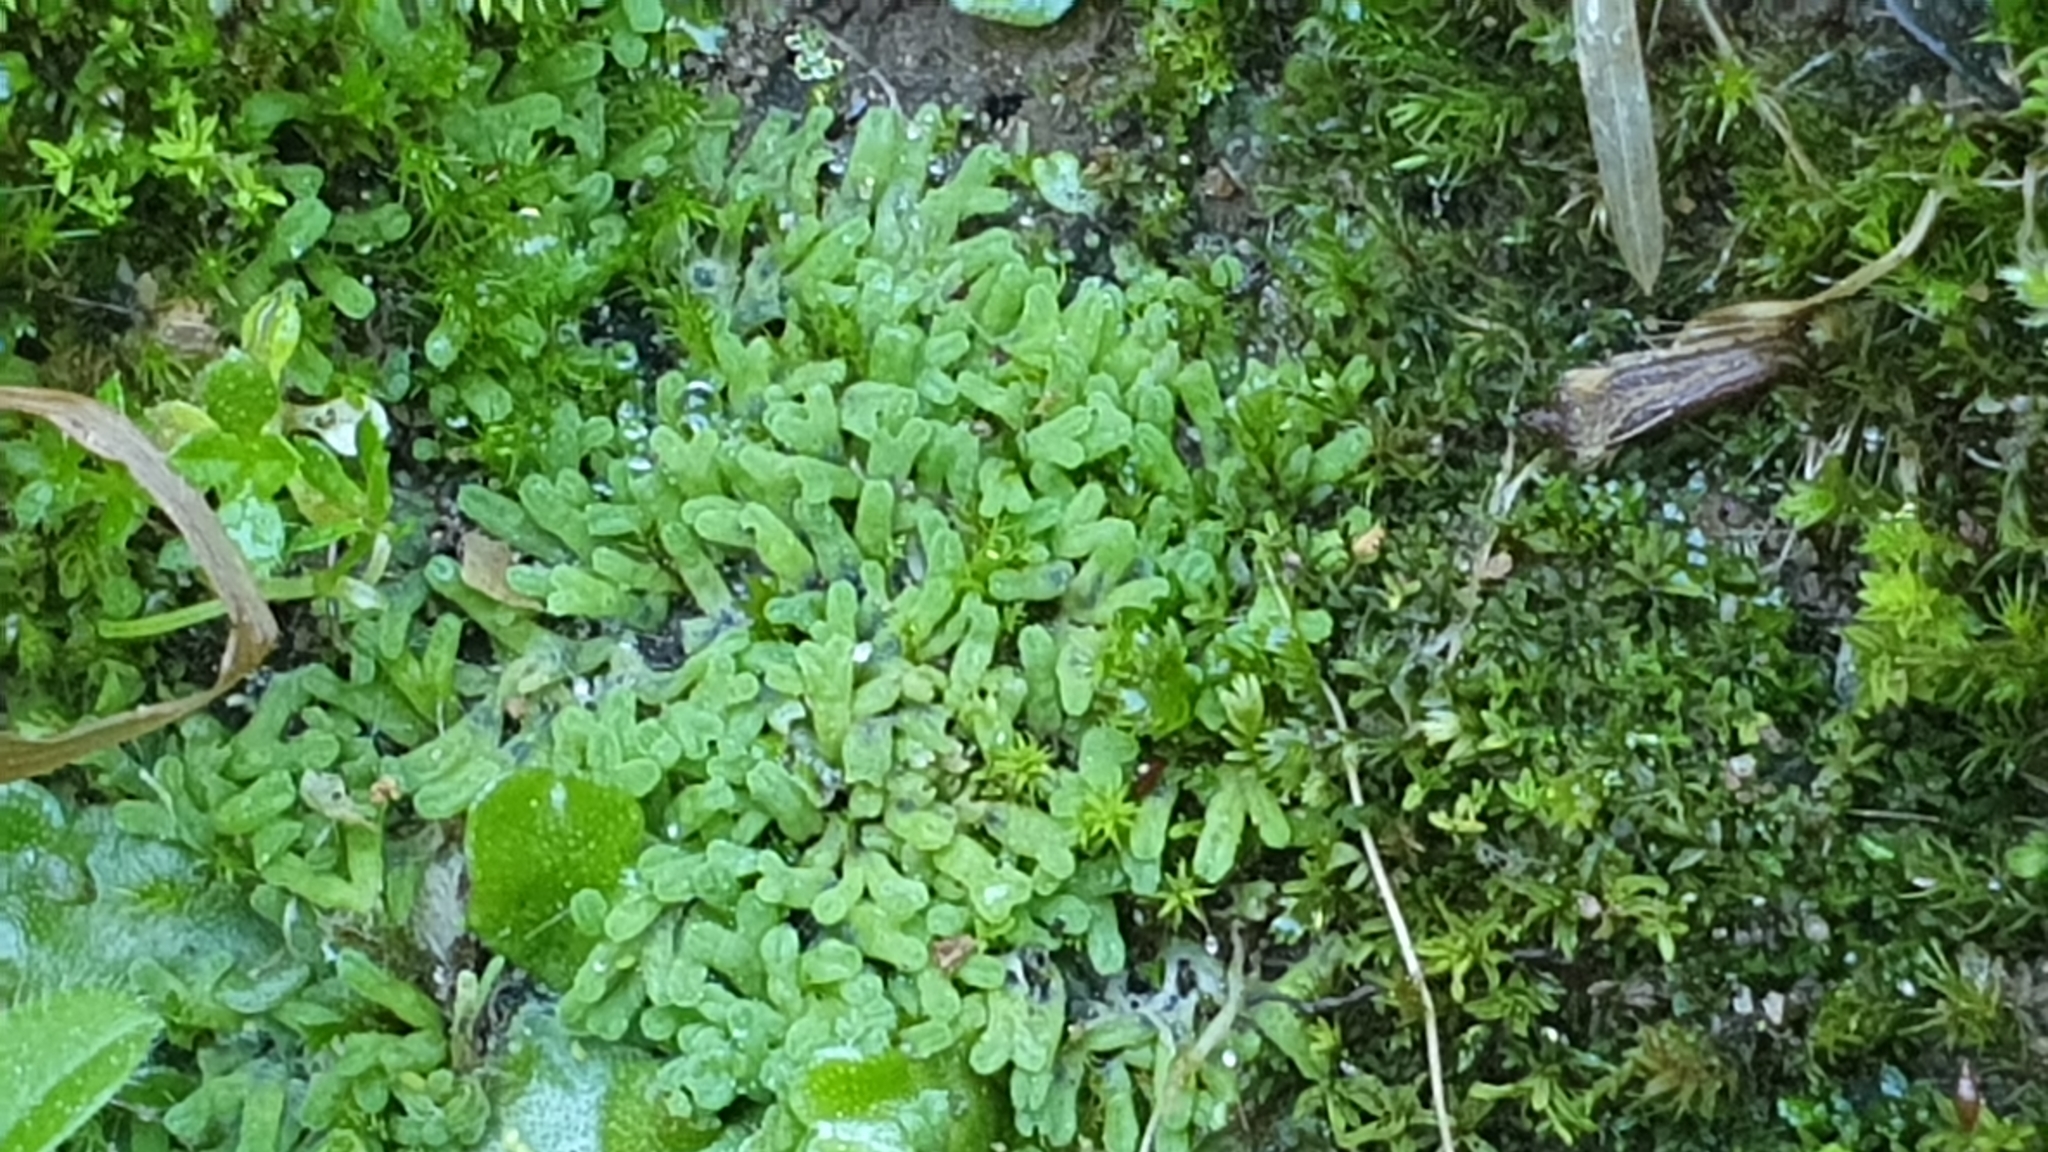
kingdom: Plantae
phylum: Marchantiophyta
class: Marchantiopsida
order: Marchantiales
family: Ricciaceae
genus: Riccia
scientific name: Riccia subbifurca
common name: Least crystalwort
